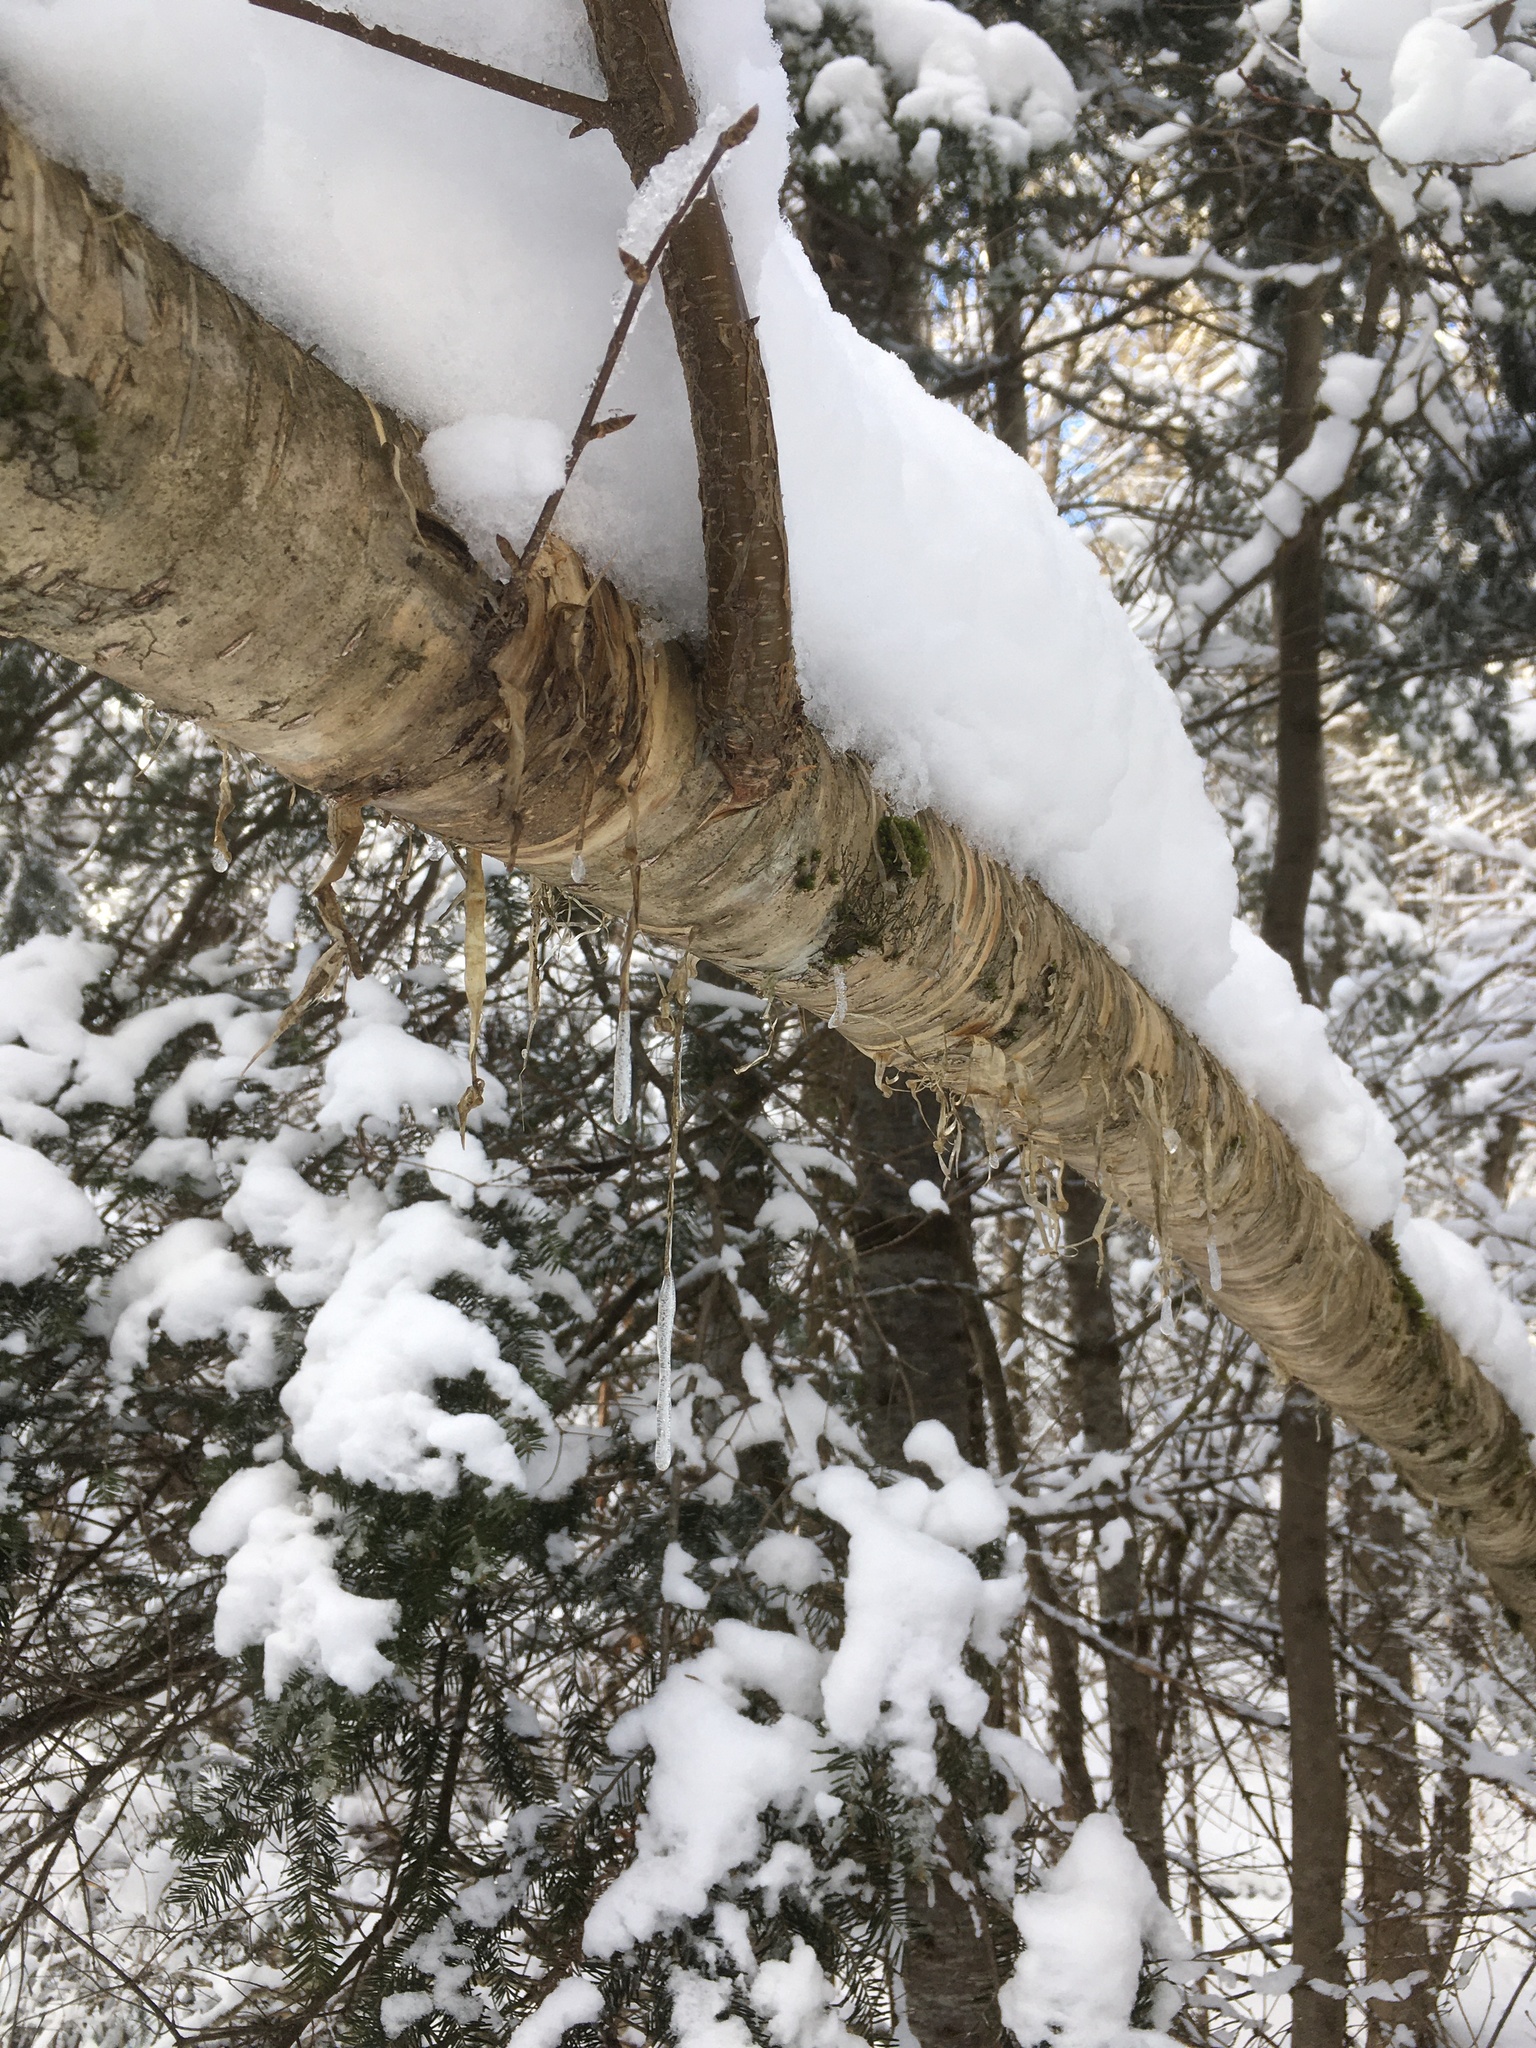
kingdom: Plantae
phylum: Tracheophyta
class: Magnoliopsida
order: Fagales
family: Betulaceae
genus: Betula
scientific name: Betula alleghaniensis
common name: Yellow birch
